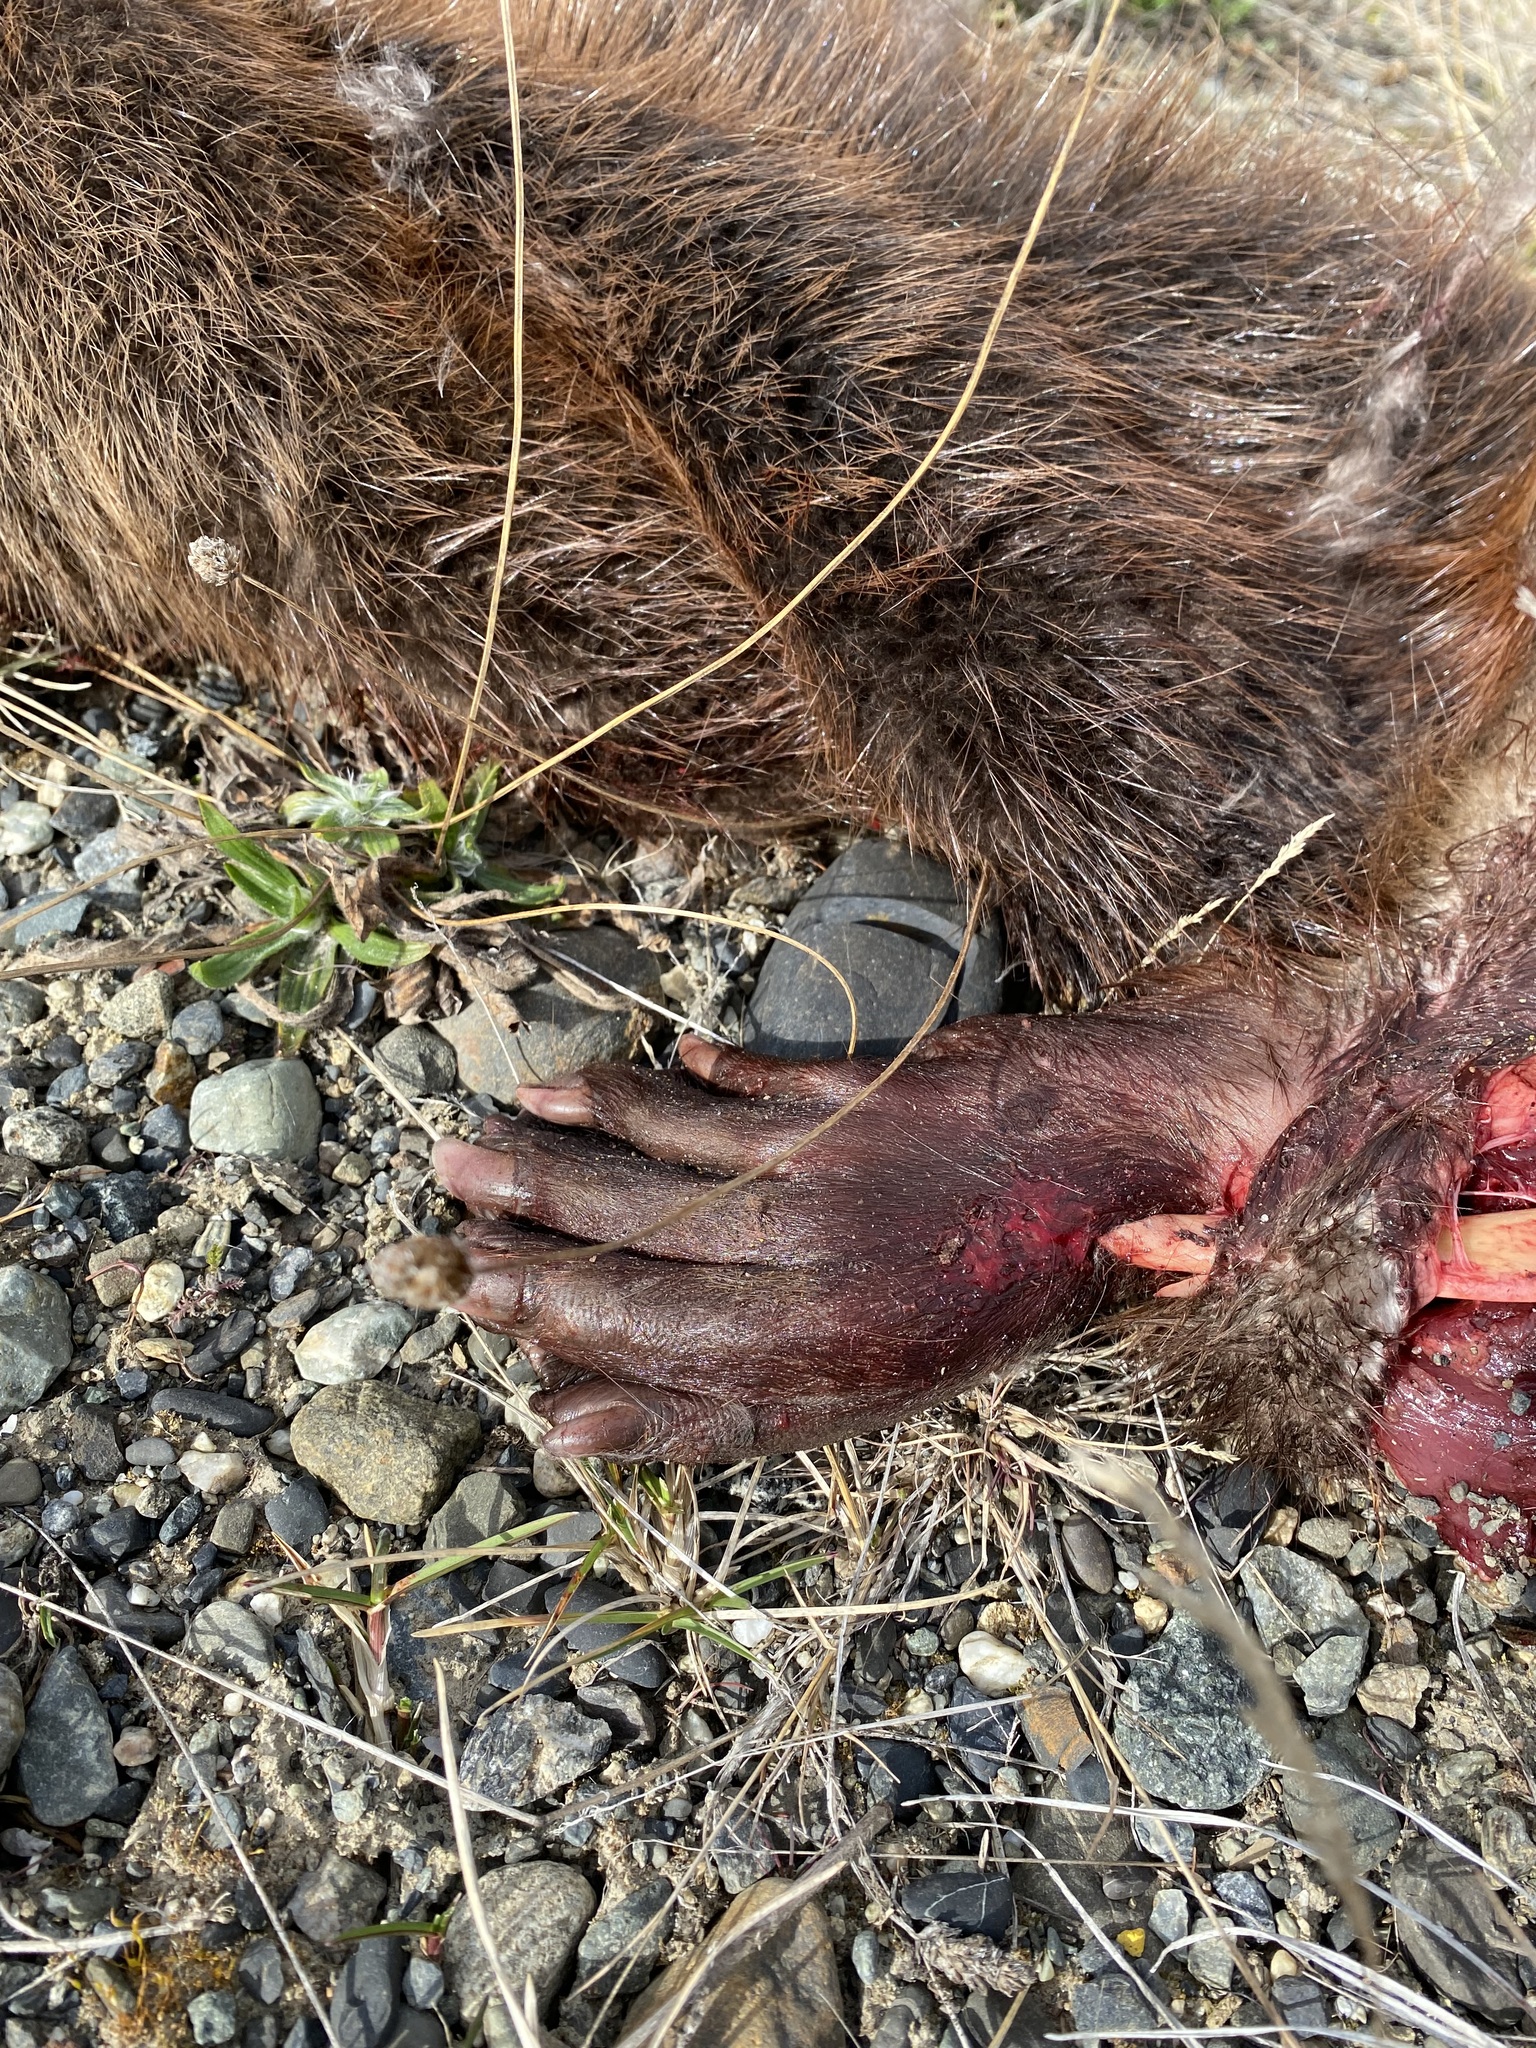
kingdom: Animalia
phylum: Chordata
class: Mammalia
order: Rodentia
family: Castoridae
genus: Castor
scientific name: Castor canadensis
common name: American beaver
